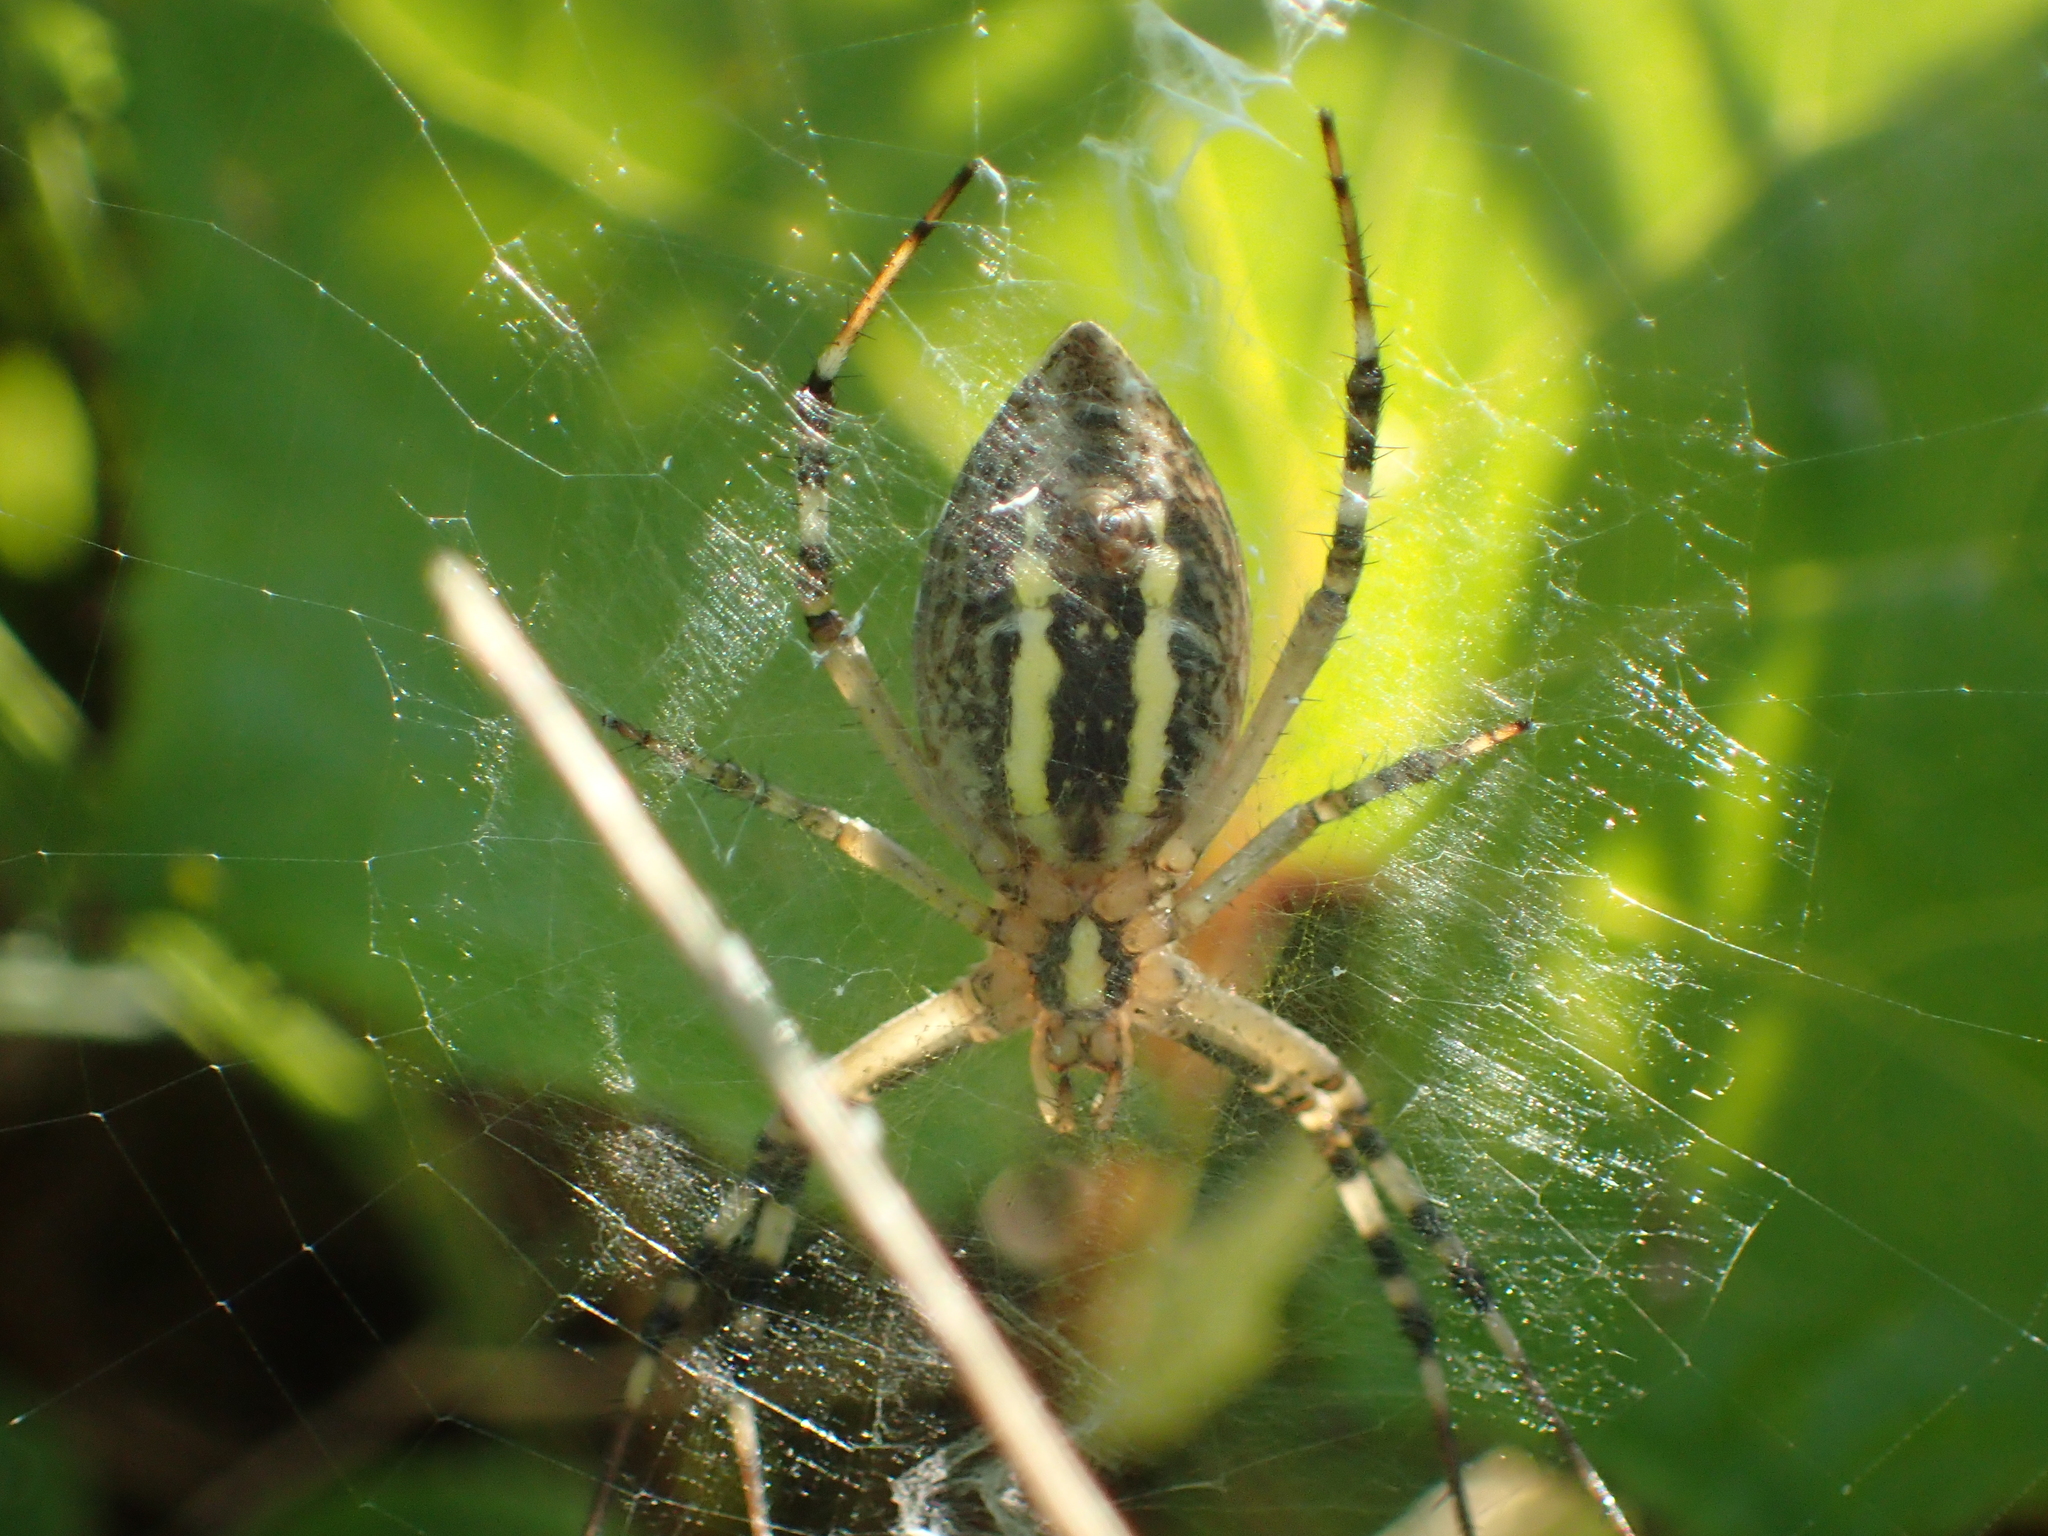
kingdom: Animalia
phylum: Arthropoda
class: Arachnida
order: Araneae
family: Araneidae
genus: Argiope
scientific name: Argiope bruennichi
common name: Wasp spider
